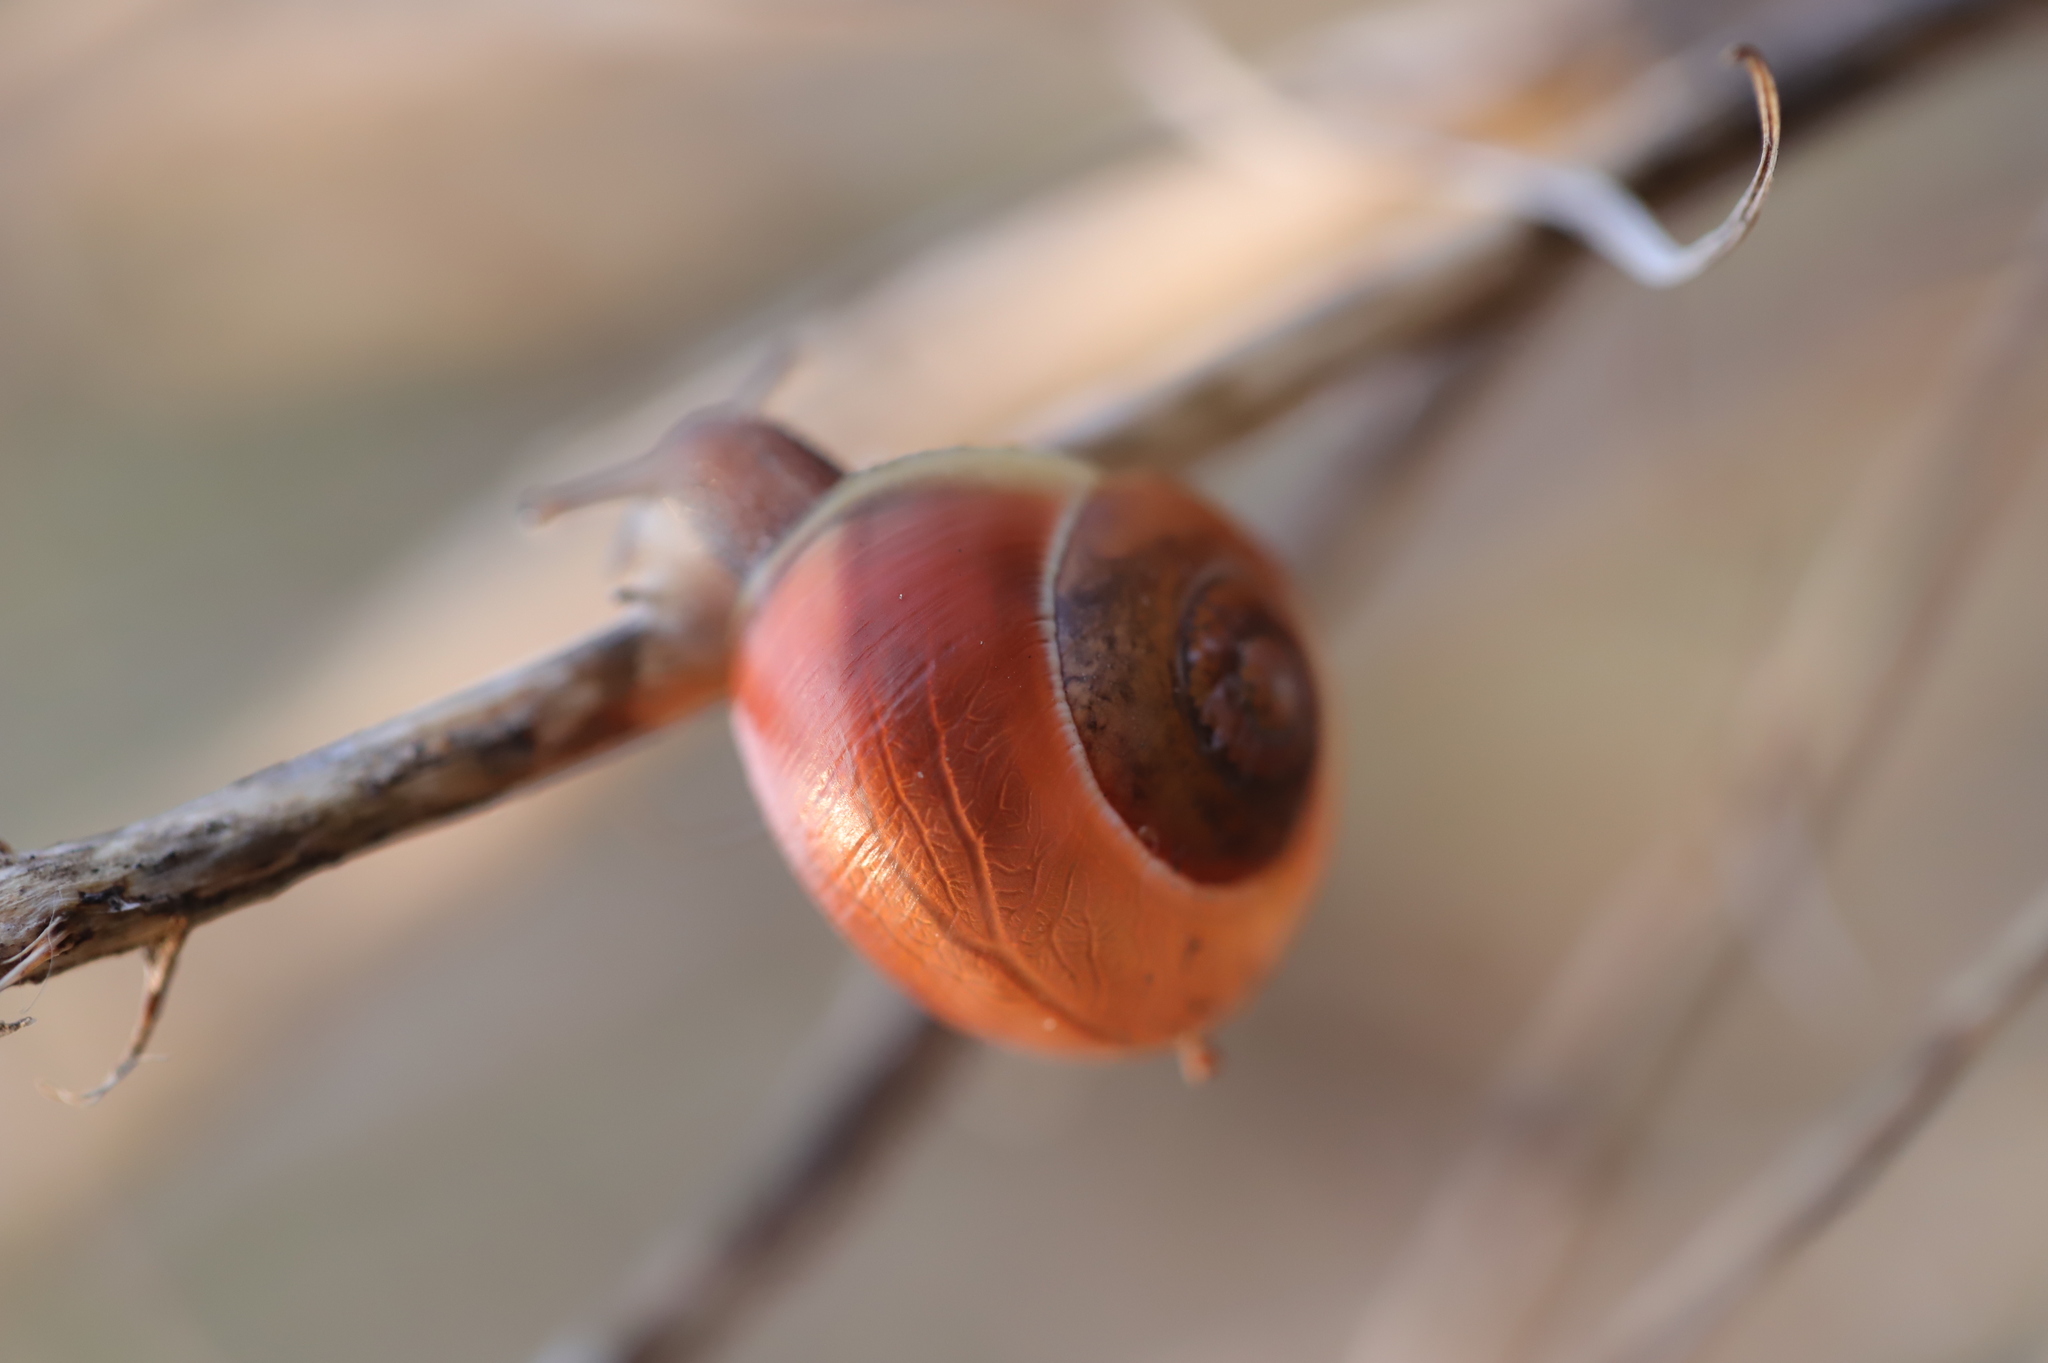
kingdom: Animalia
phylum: Mollusca
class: Gastropoda
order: Stylommatophora
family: Helicidae
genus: Cepaea
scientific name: Cepaea nemoralis
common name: Grovesnail
